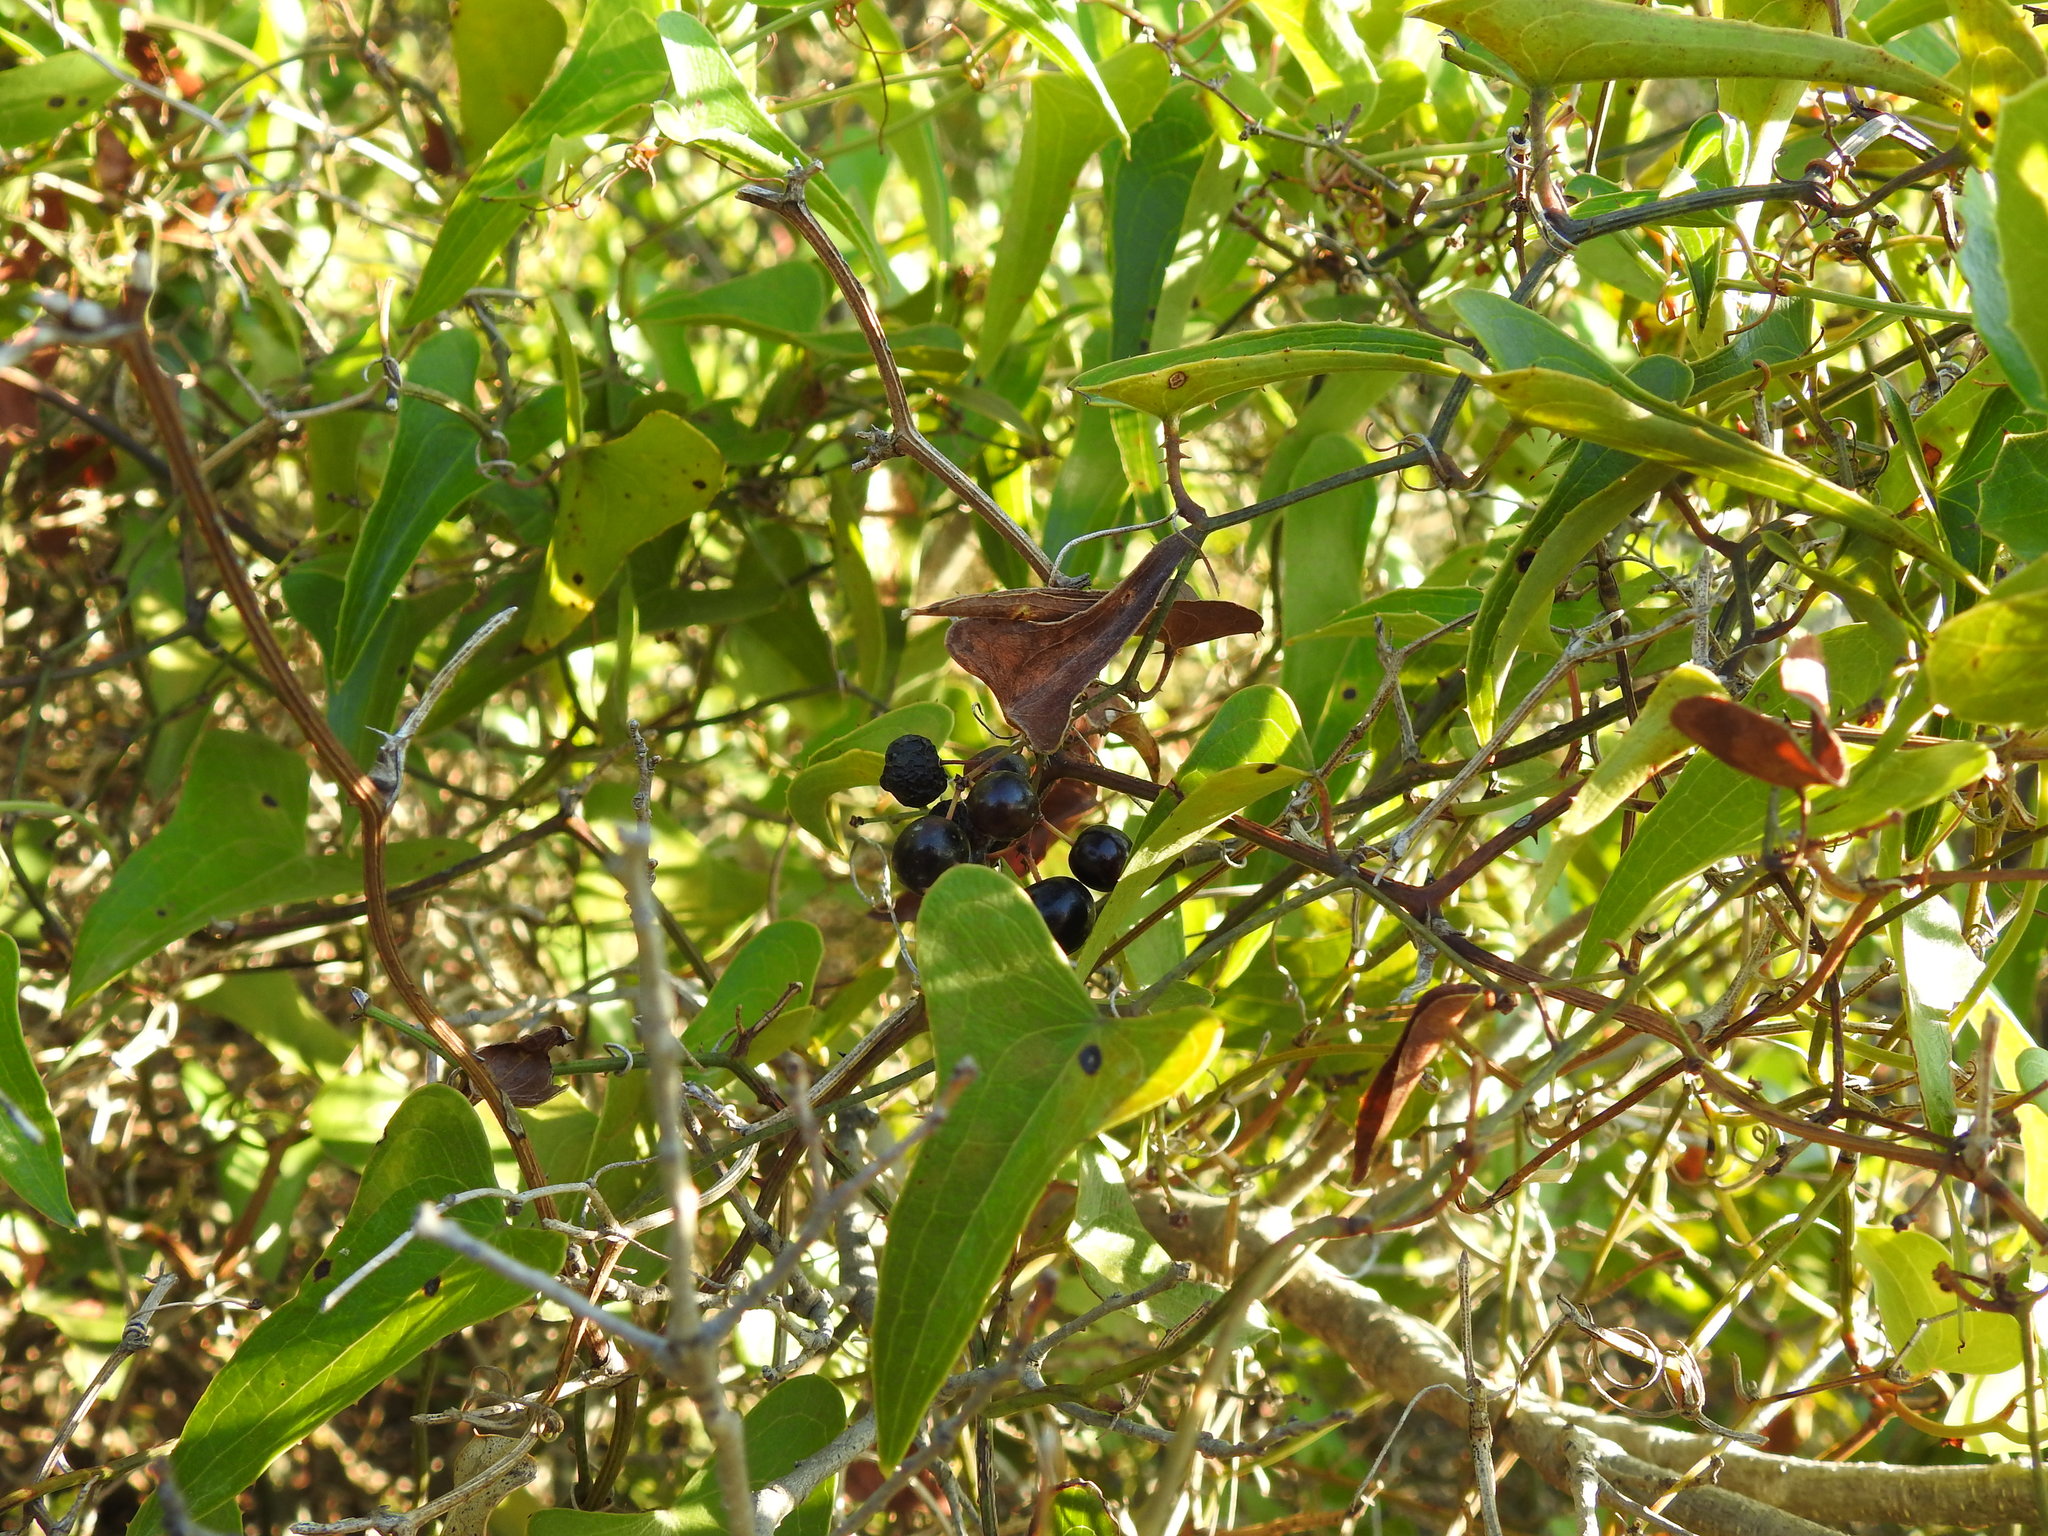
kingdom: Plantae
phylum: Tracheophyta
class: Liliopsida
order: Liliales
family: Smilacaceae
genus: Smilax
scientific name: Smilax aspera
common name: Common smilax
